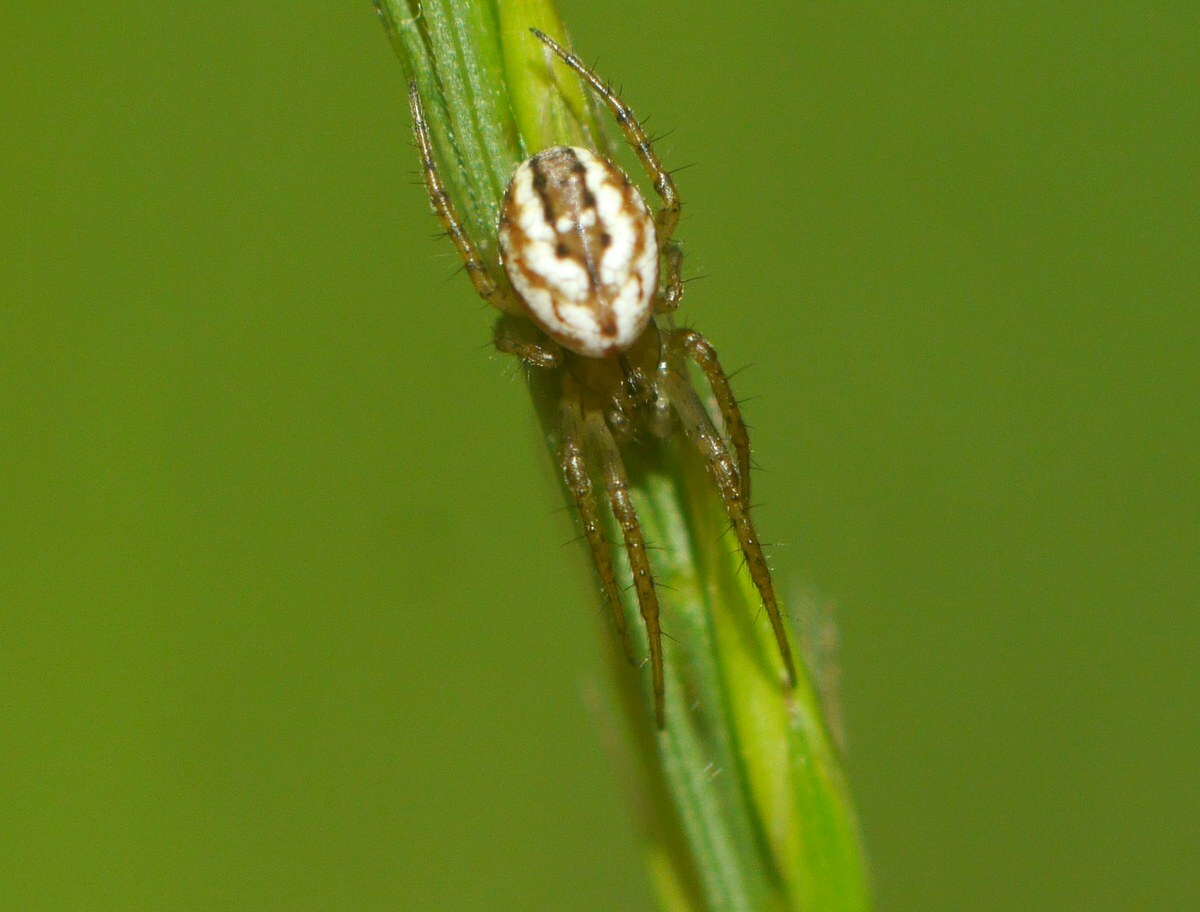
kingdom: Animalia
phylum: Arthropoda
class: Arachnida
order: Araneae
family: Araneidae
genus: Mangora
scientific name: Mangora acalypha
